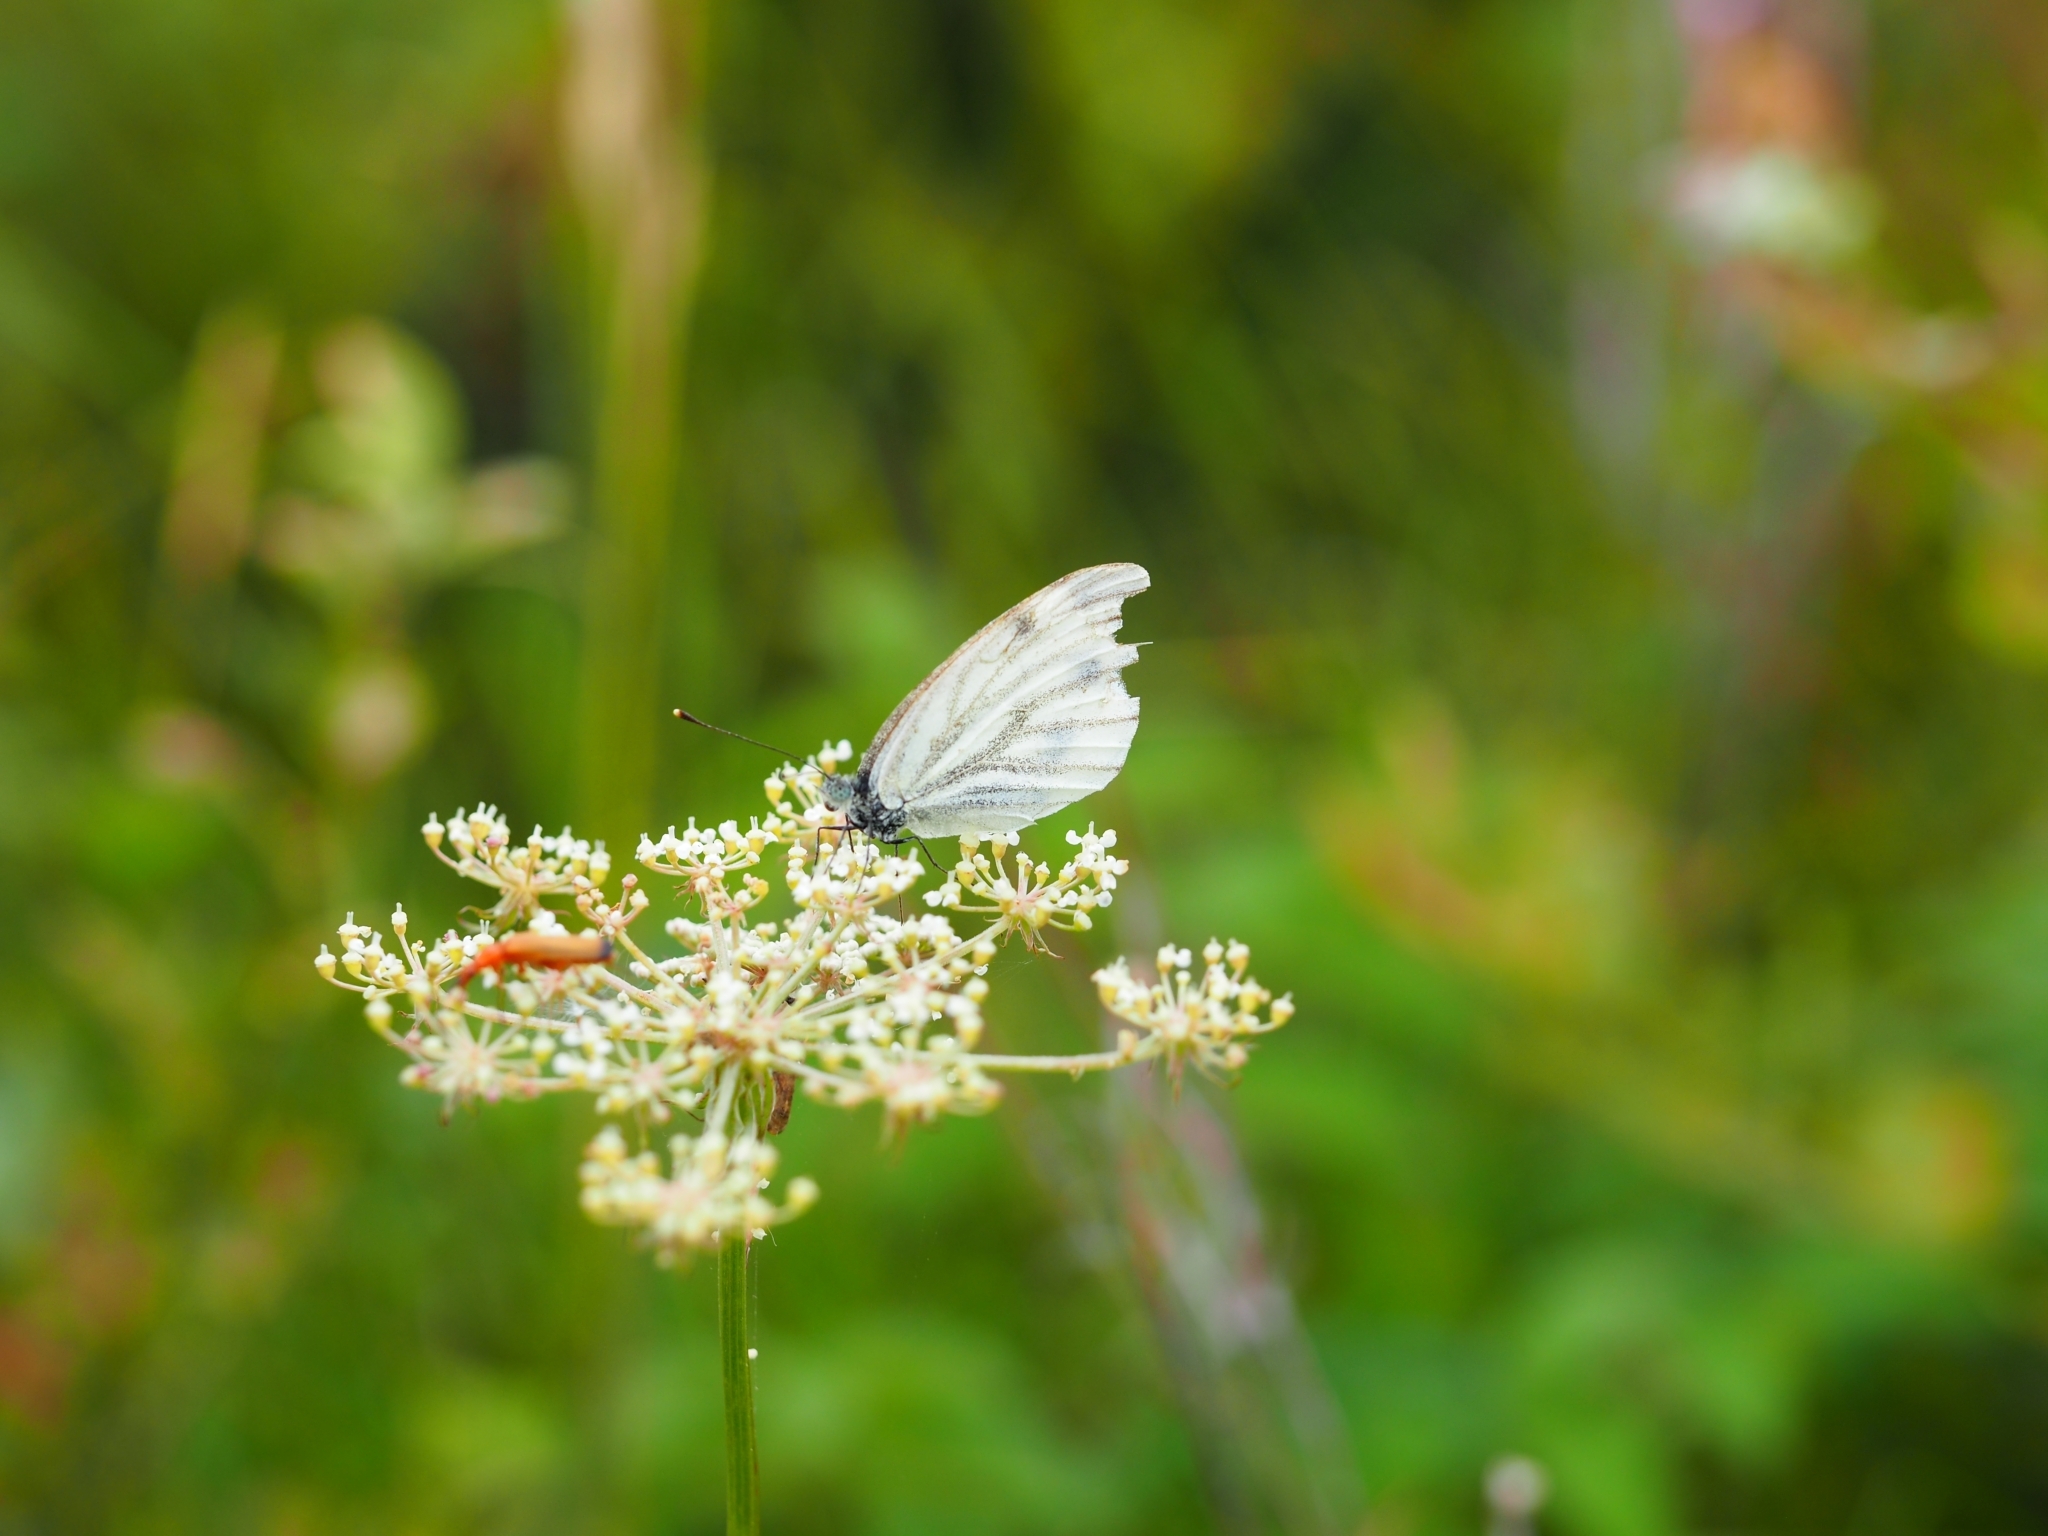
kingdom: Animalia
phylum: Arthropoda
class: Insecta
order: Lepidoptera
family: Pieridae
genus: Pieris
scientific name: Pieris napi
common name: Green-veined white
